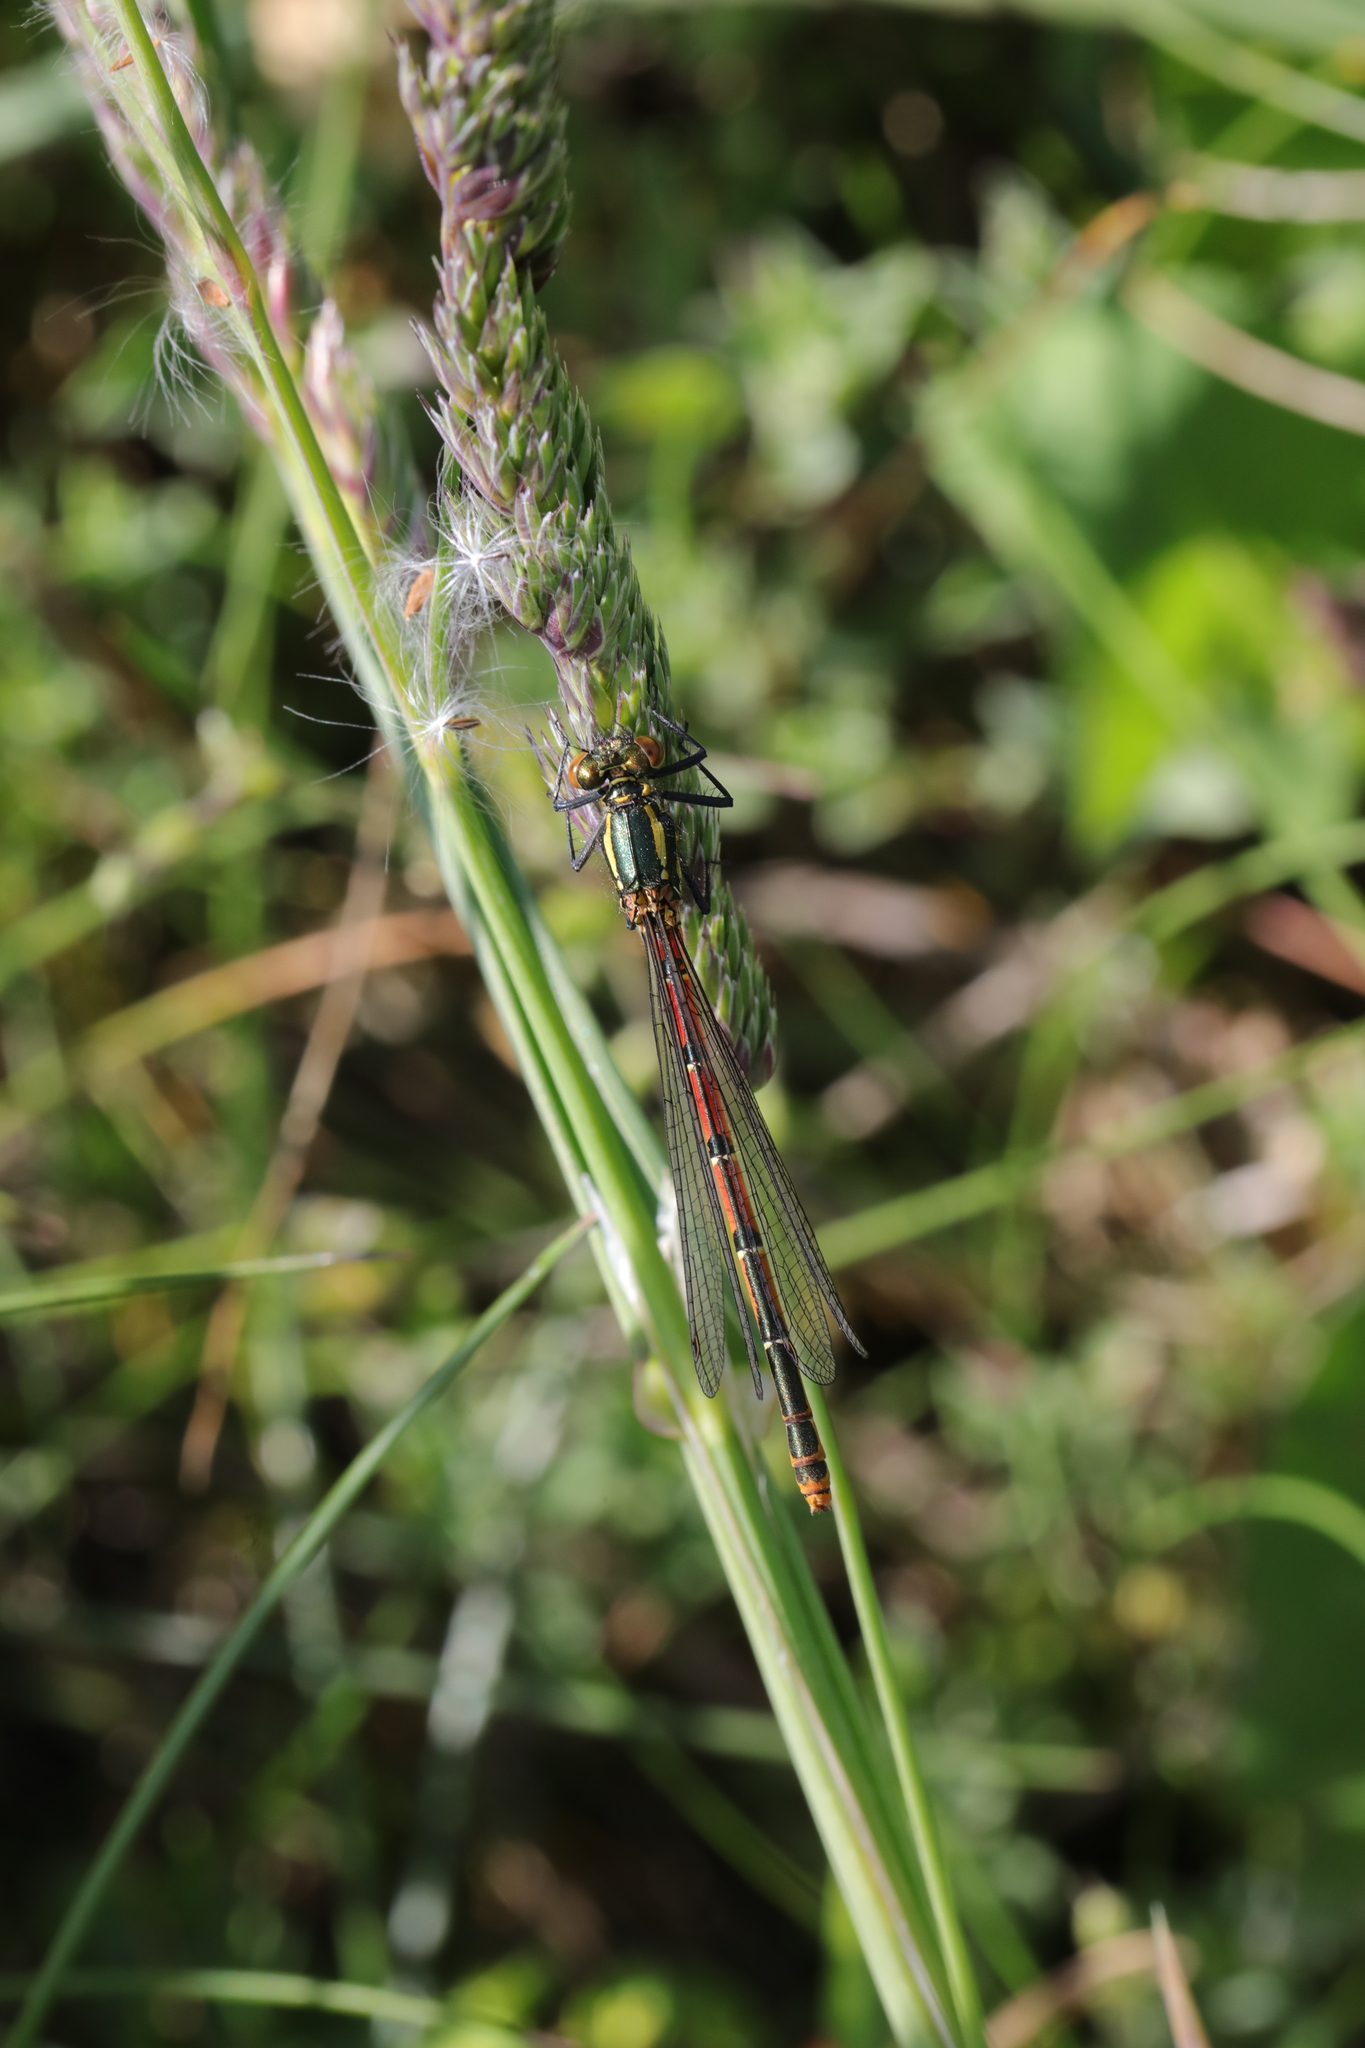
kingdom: Animalia
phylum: Arthropoda
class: Insecta
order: Odonata
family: Coenagrionidae
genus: Pyrrhosoma
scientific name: Pyrrhosoma nymphula
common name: Large red damsel
